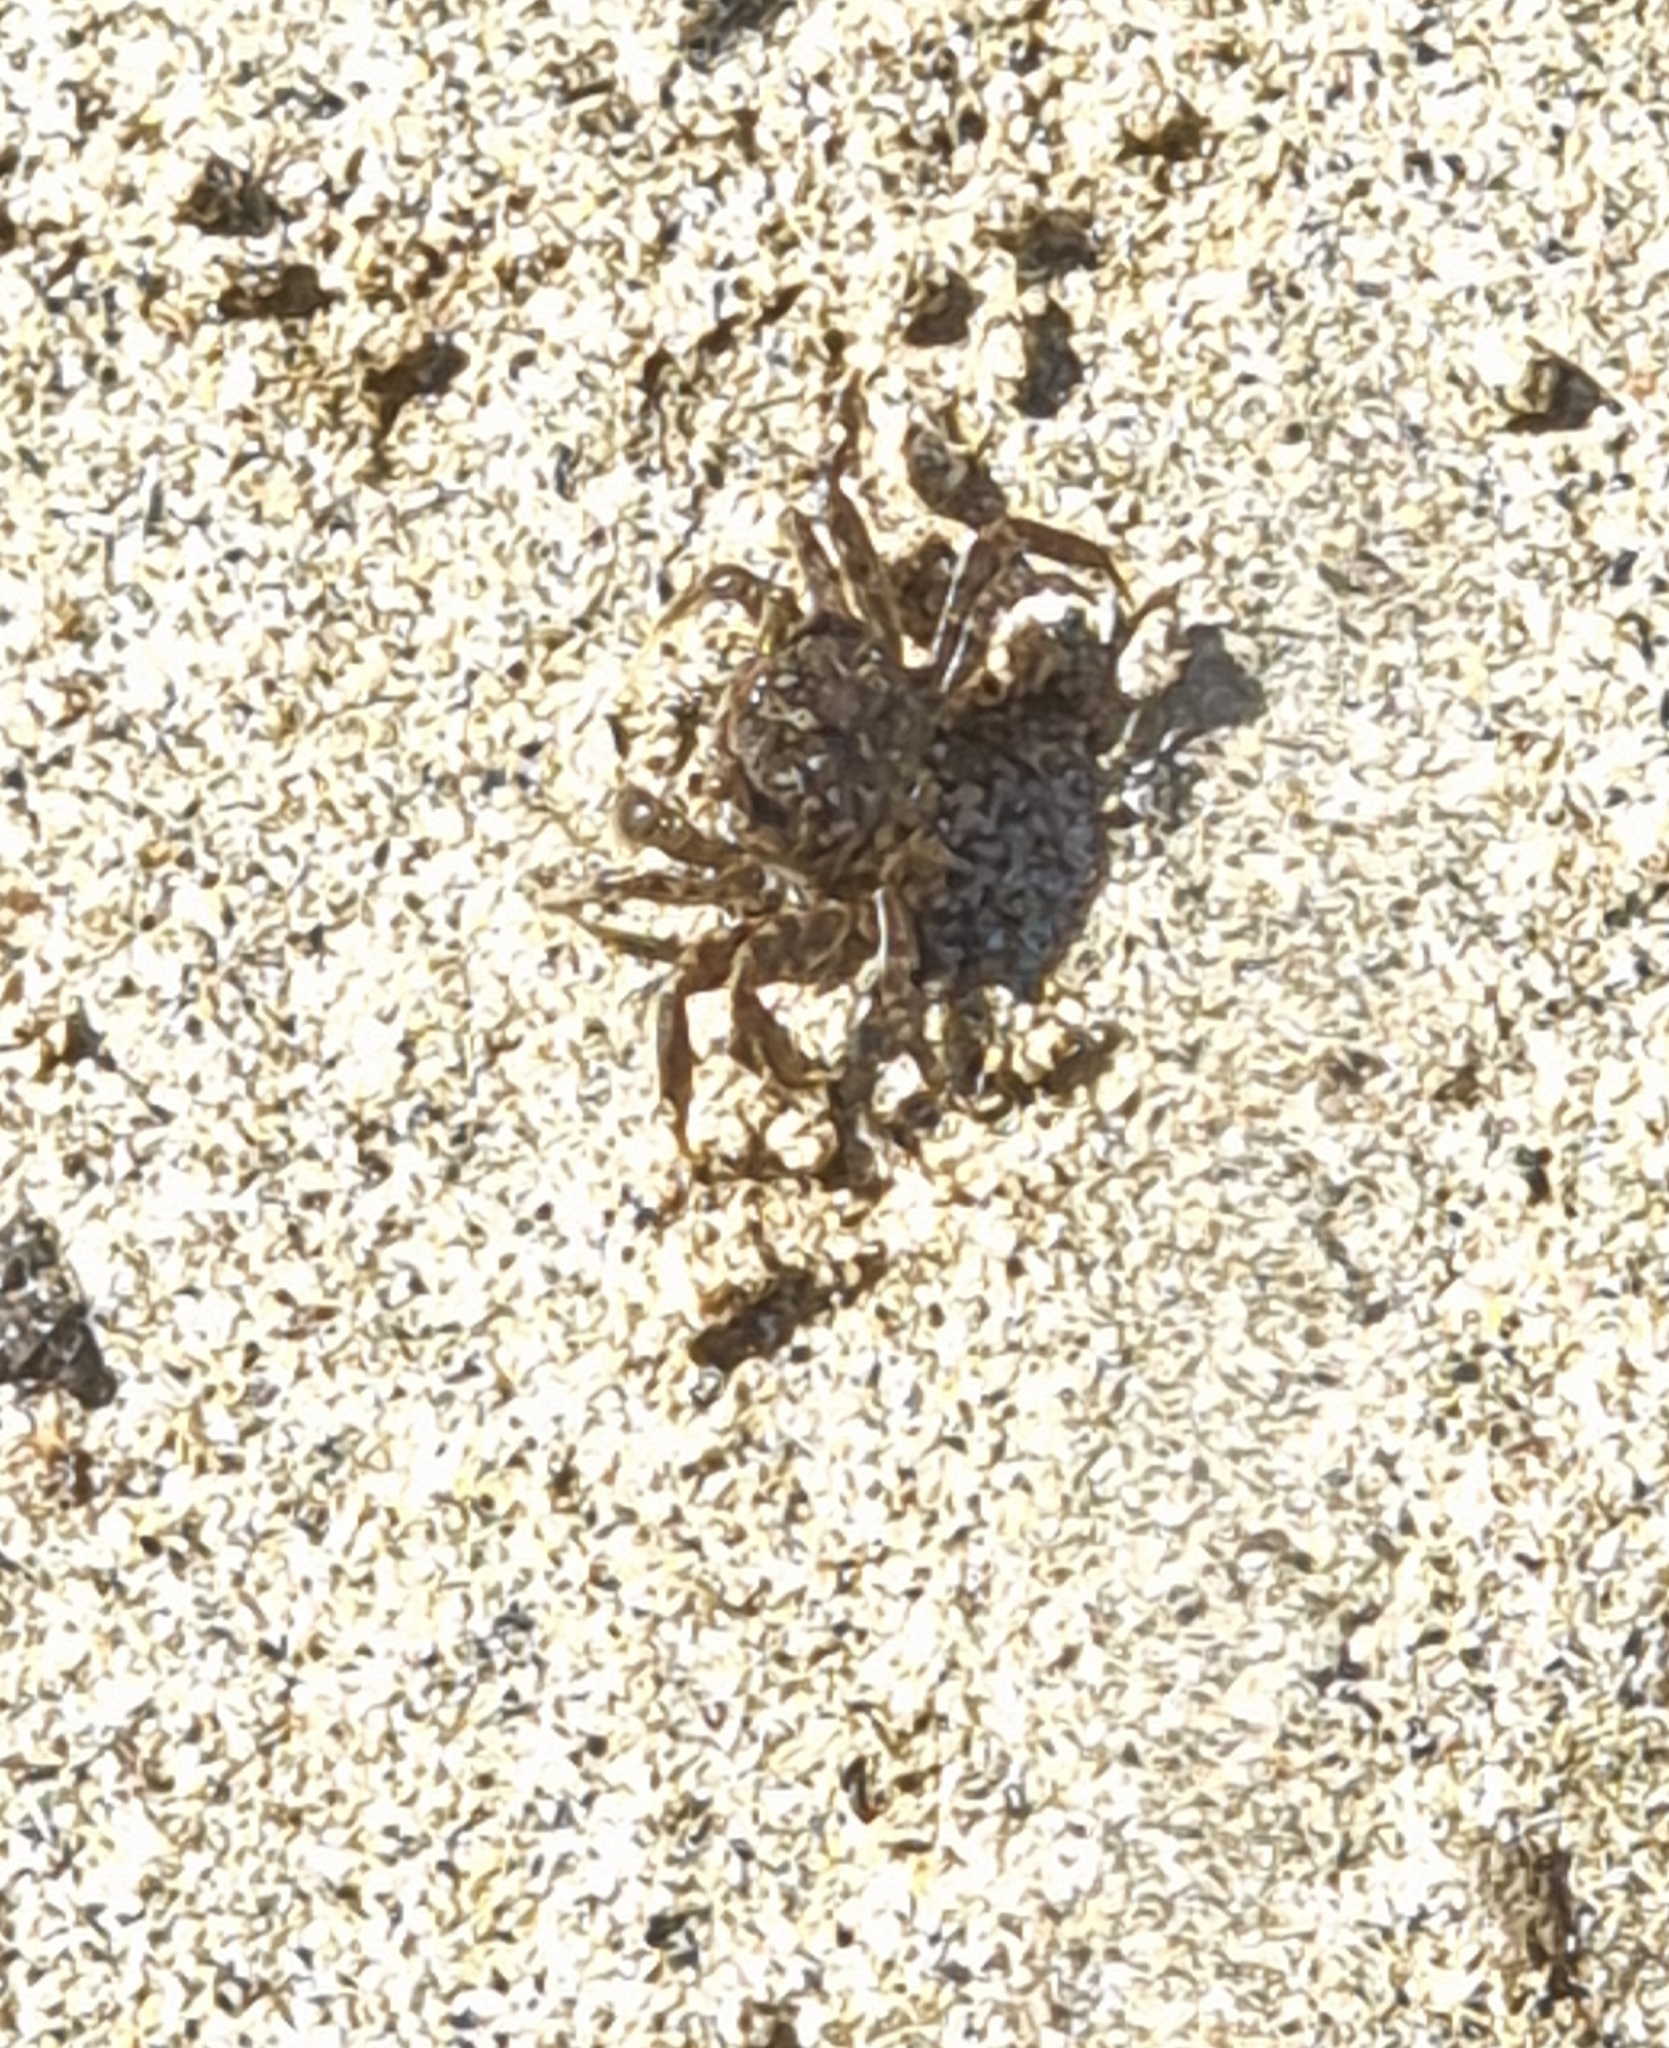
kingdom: Animalia
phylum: Arthropoda
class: Malacostraca
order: Decapoda
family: Varunidae
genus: Austrohelice
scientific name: Austrohelice crassa
